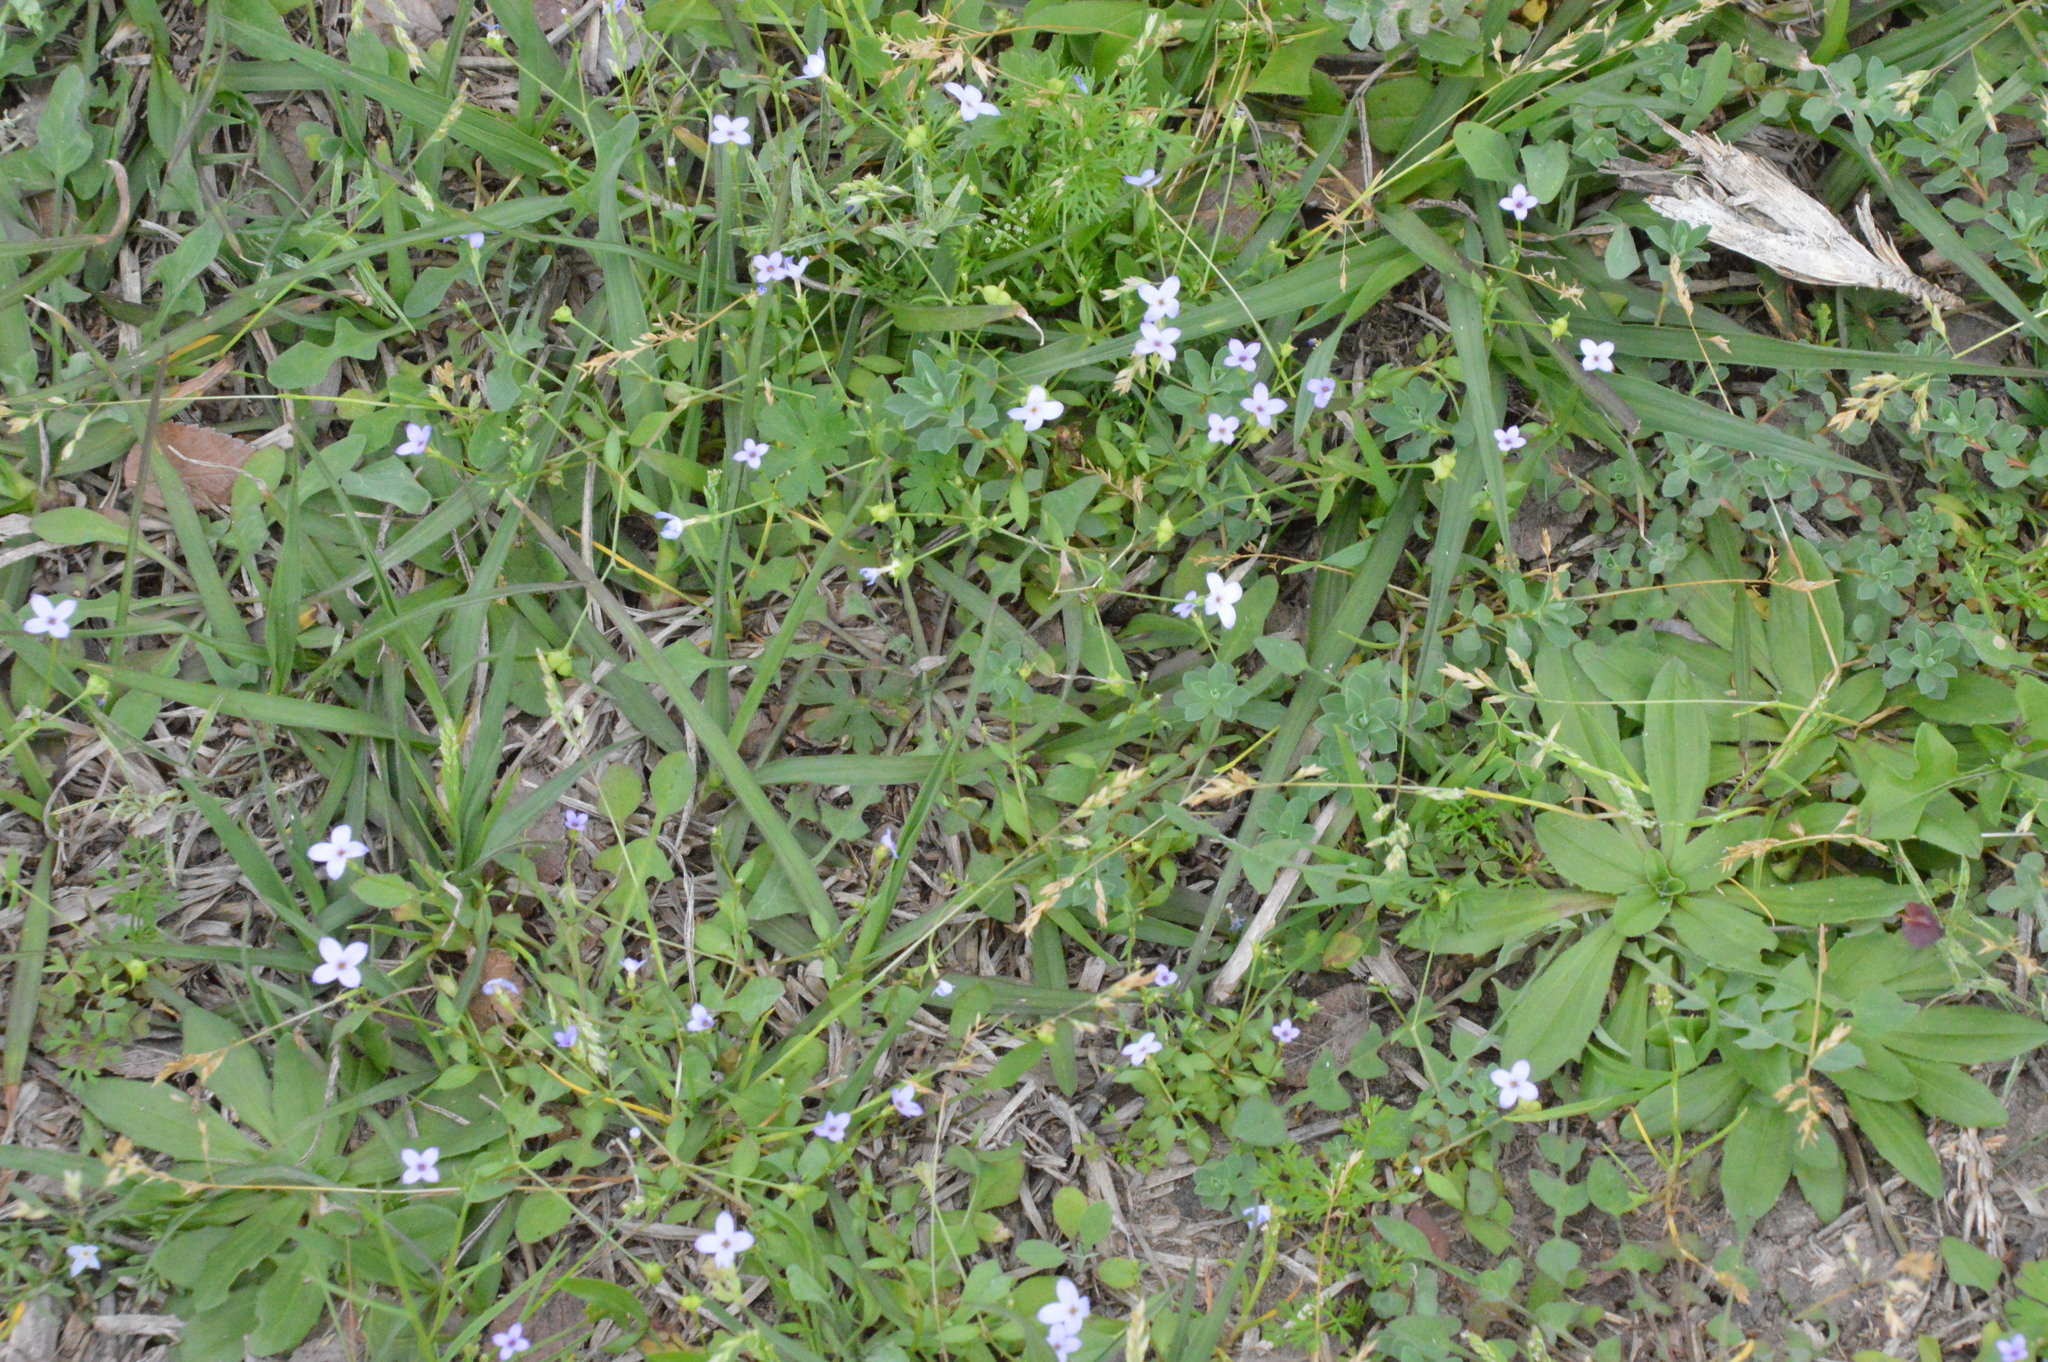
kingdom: Plantae
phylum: Tracheophyta
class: Magnoliopsida
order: Gentianales
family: Rubiaceae
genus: Houstonia
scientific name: Houstonia pusilla
